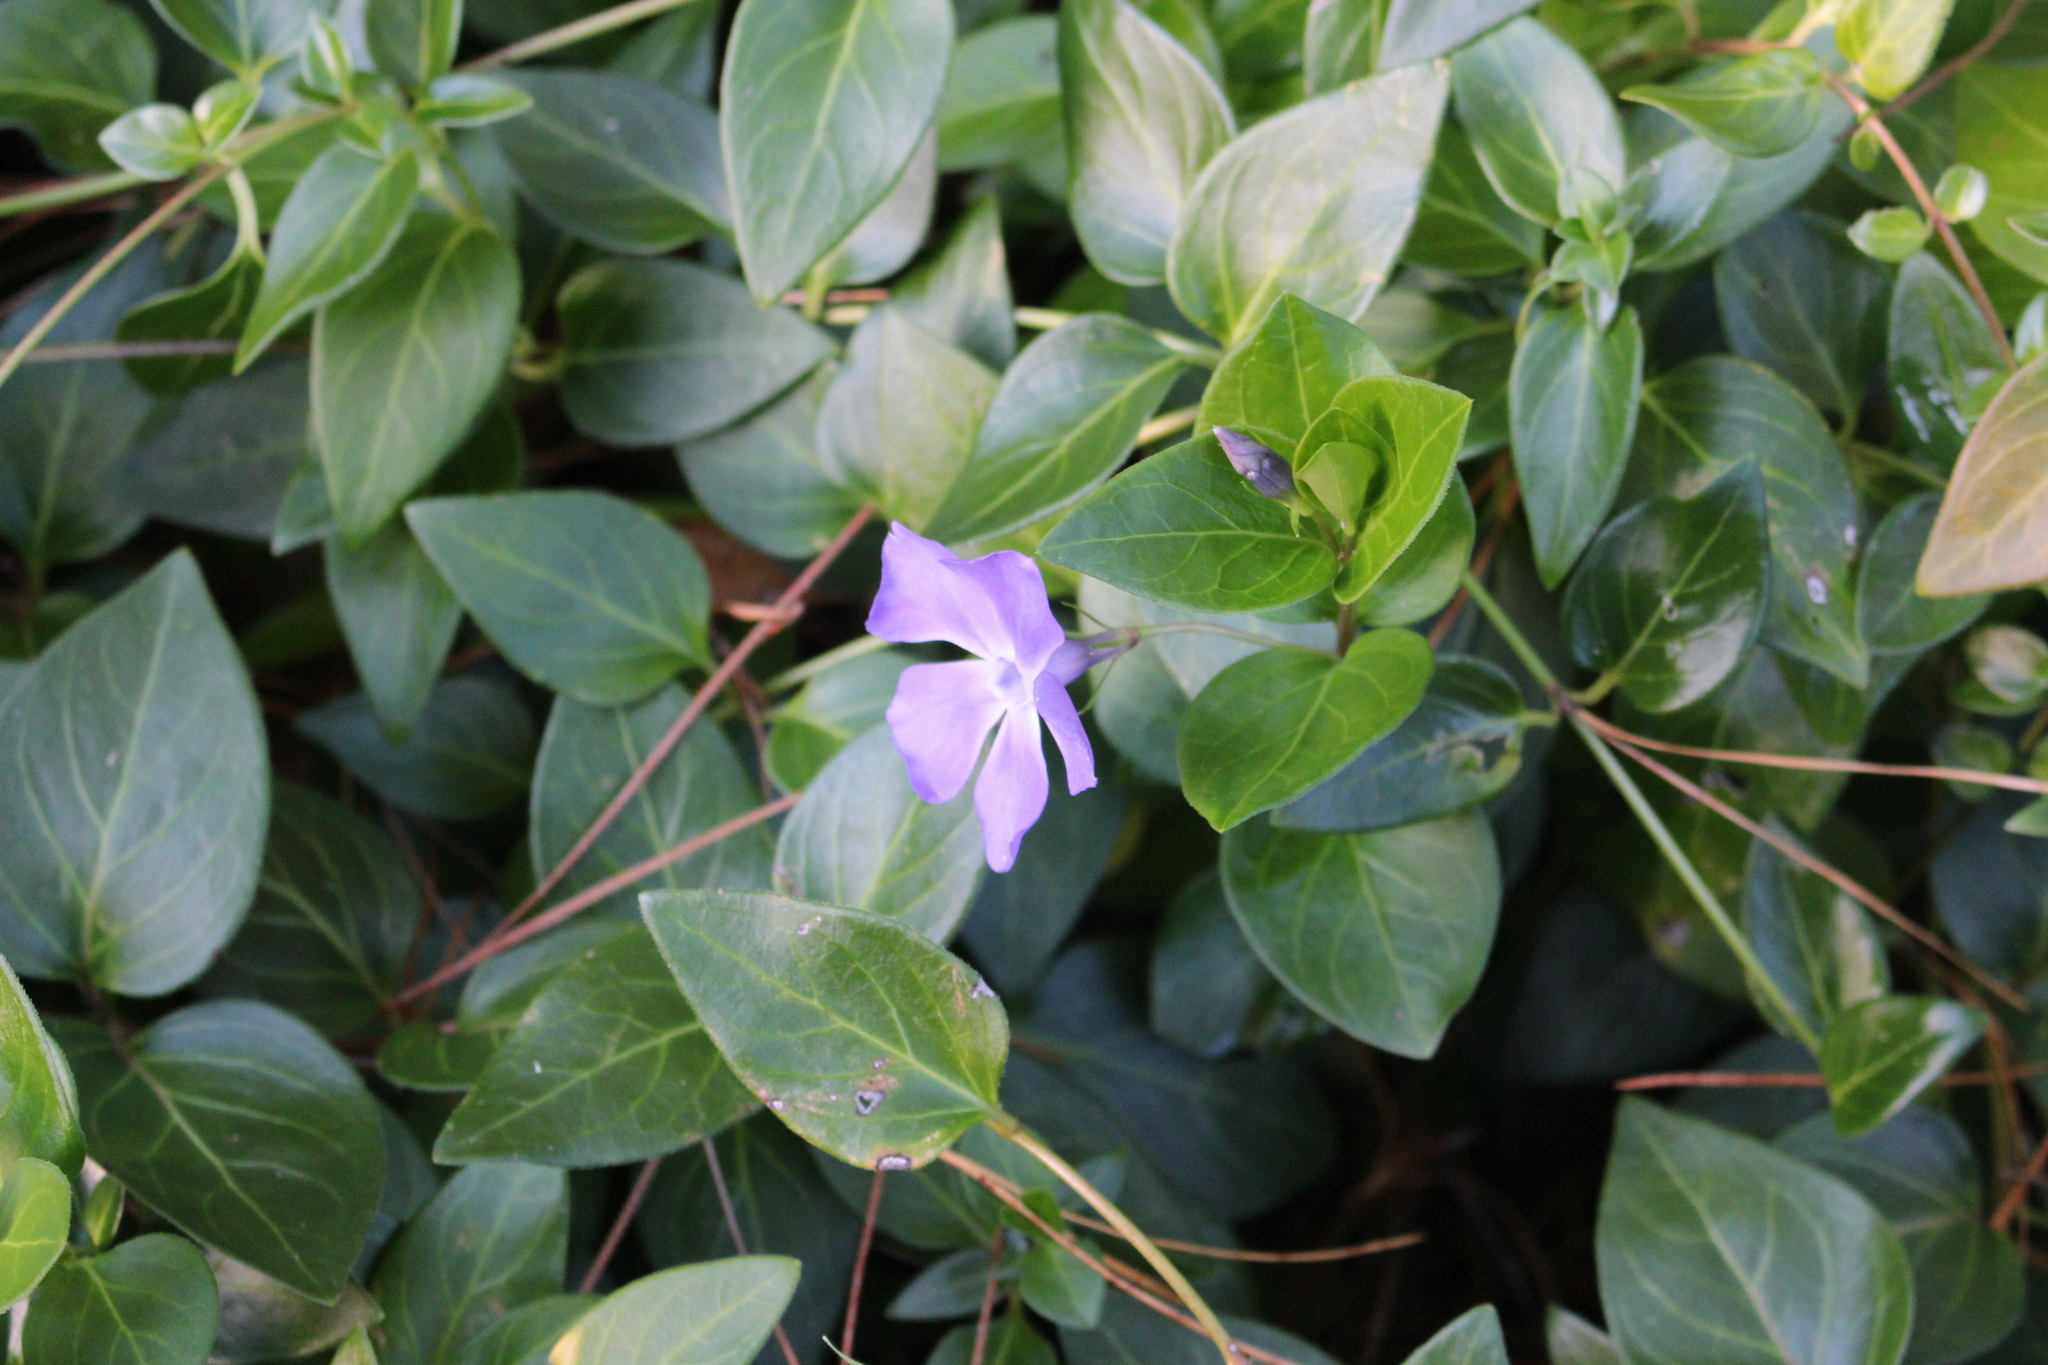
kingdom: Plantae
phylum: Tracheophyta
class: Magnoliopsida
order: Gentianales
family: Apocynaceae
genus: Vinca
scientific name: Vinca major
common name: Greater periwinkle
